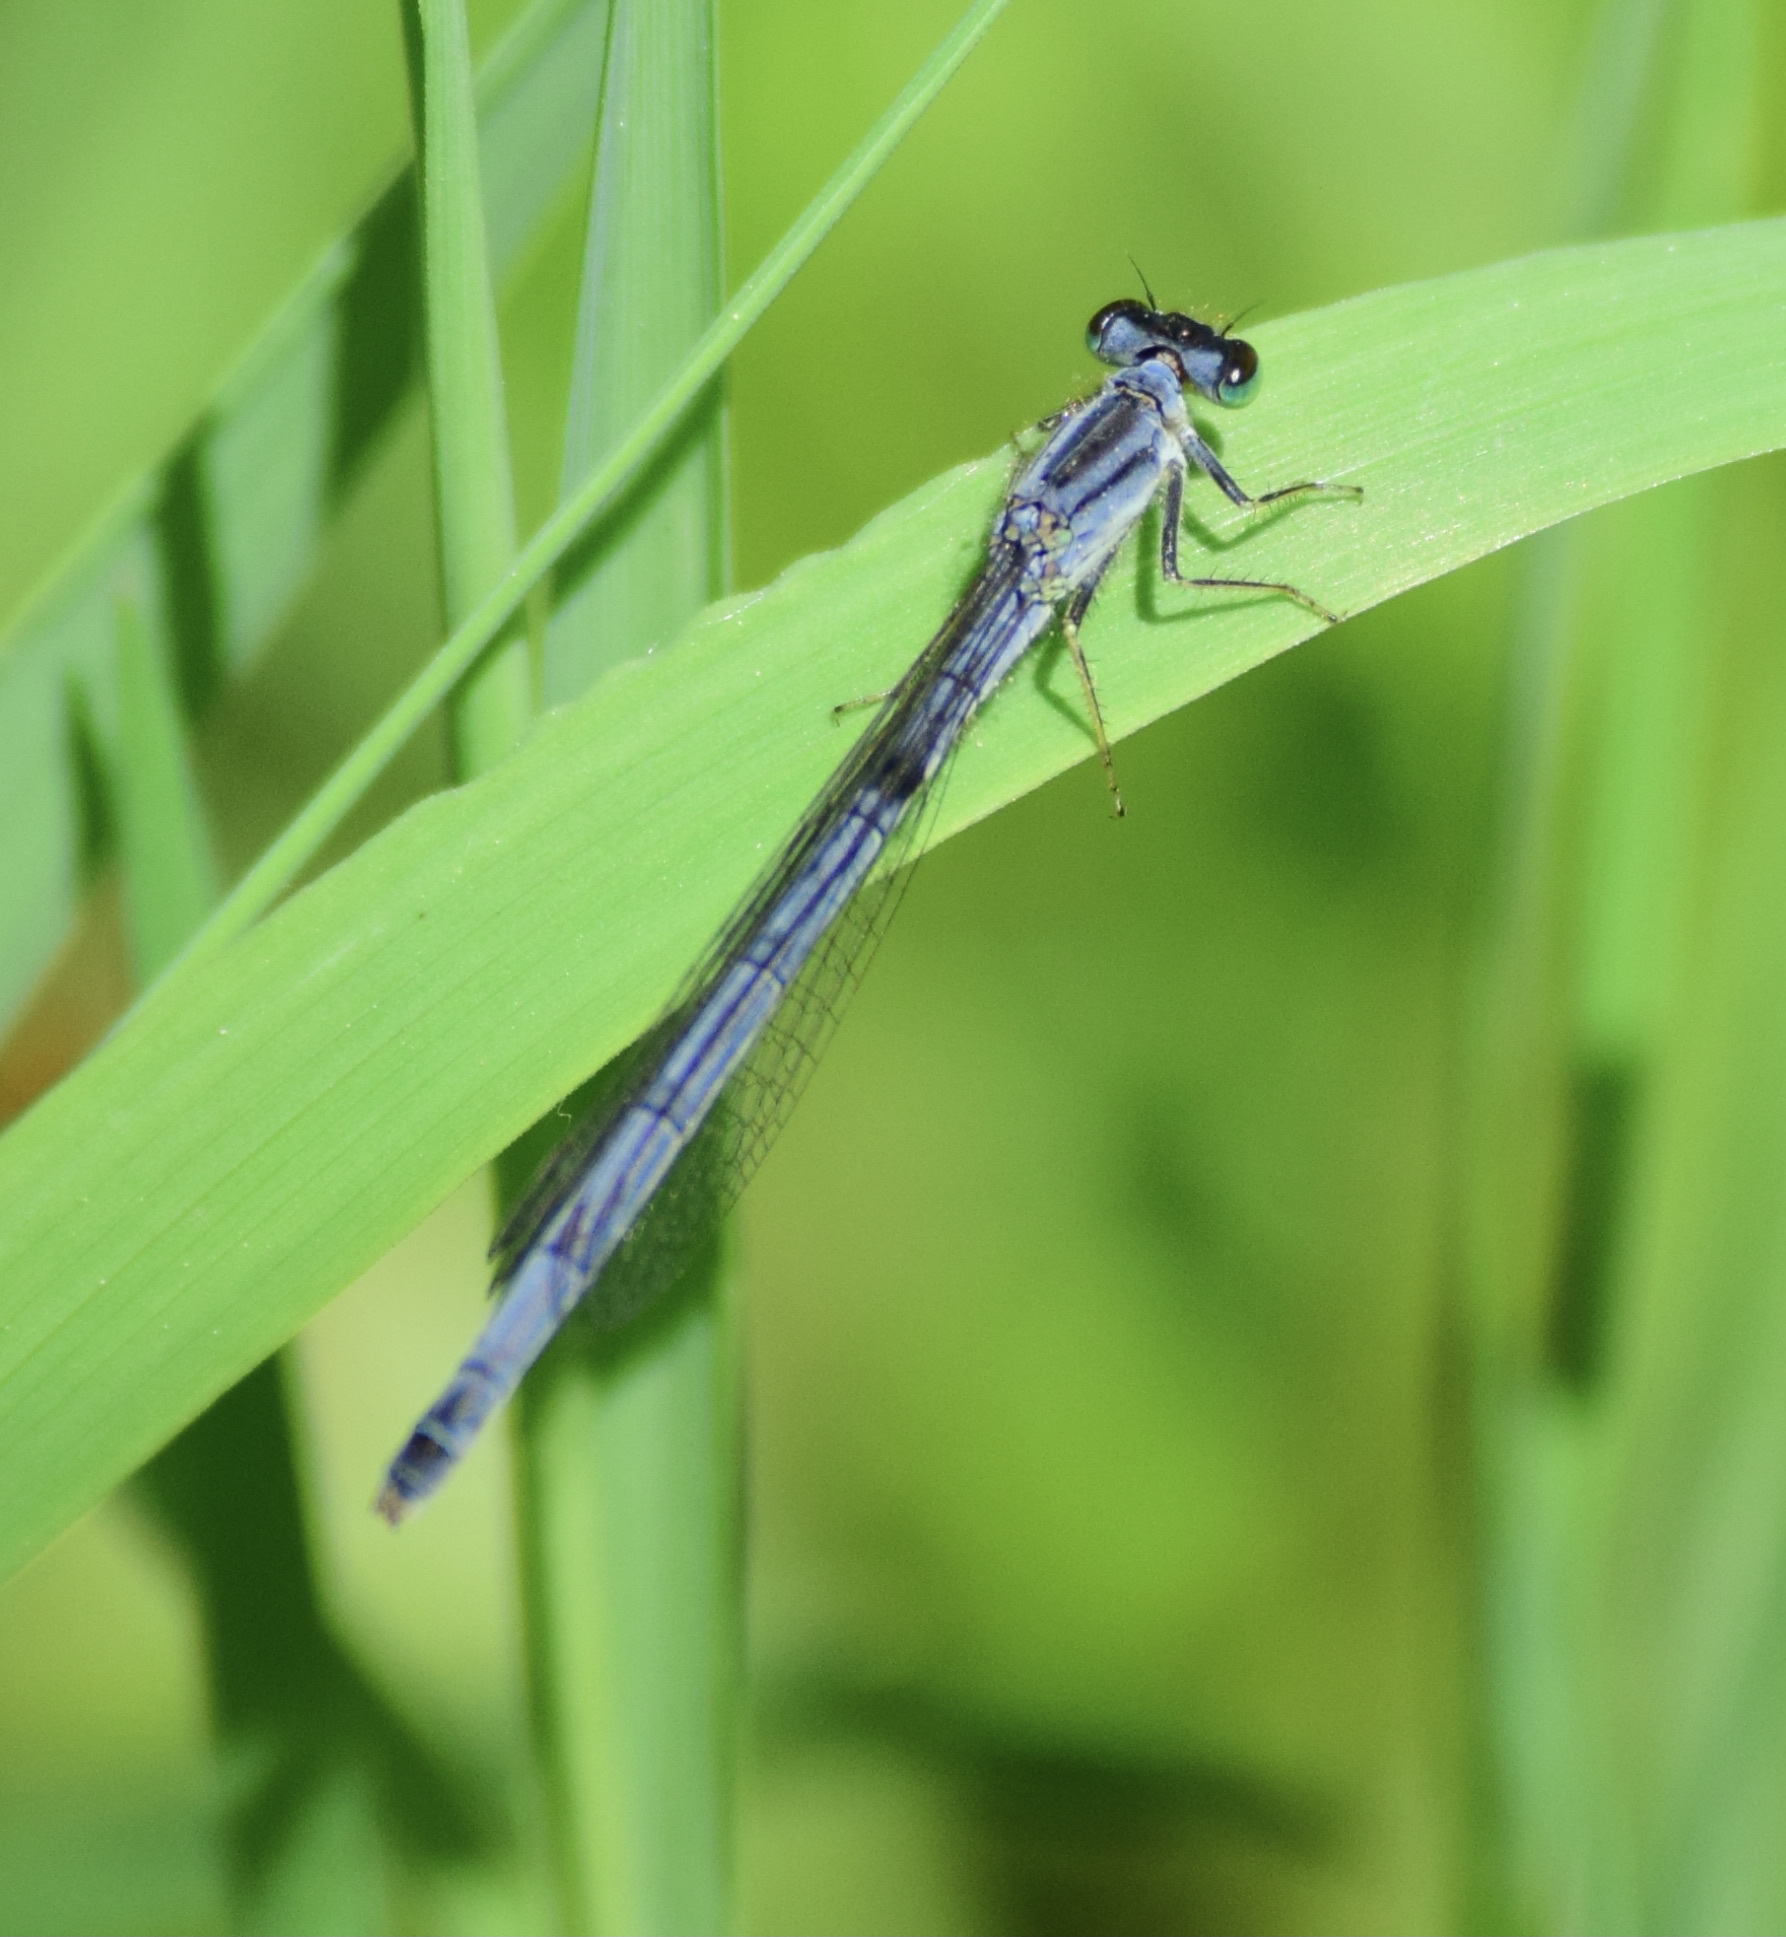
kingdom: Animalia
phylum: Arthropoda
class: Insecta
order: Odonata
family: Coenagrionidae
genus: Ischnura
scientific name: Ischnura verticalis
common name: Eastern forktail
